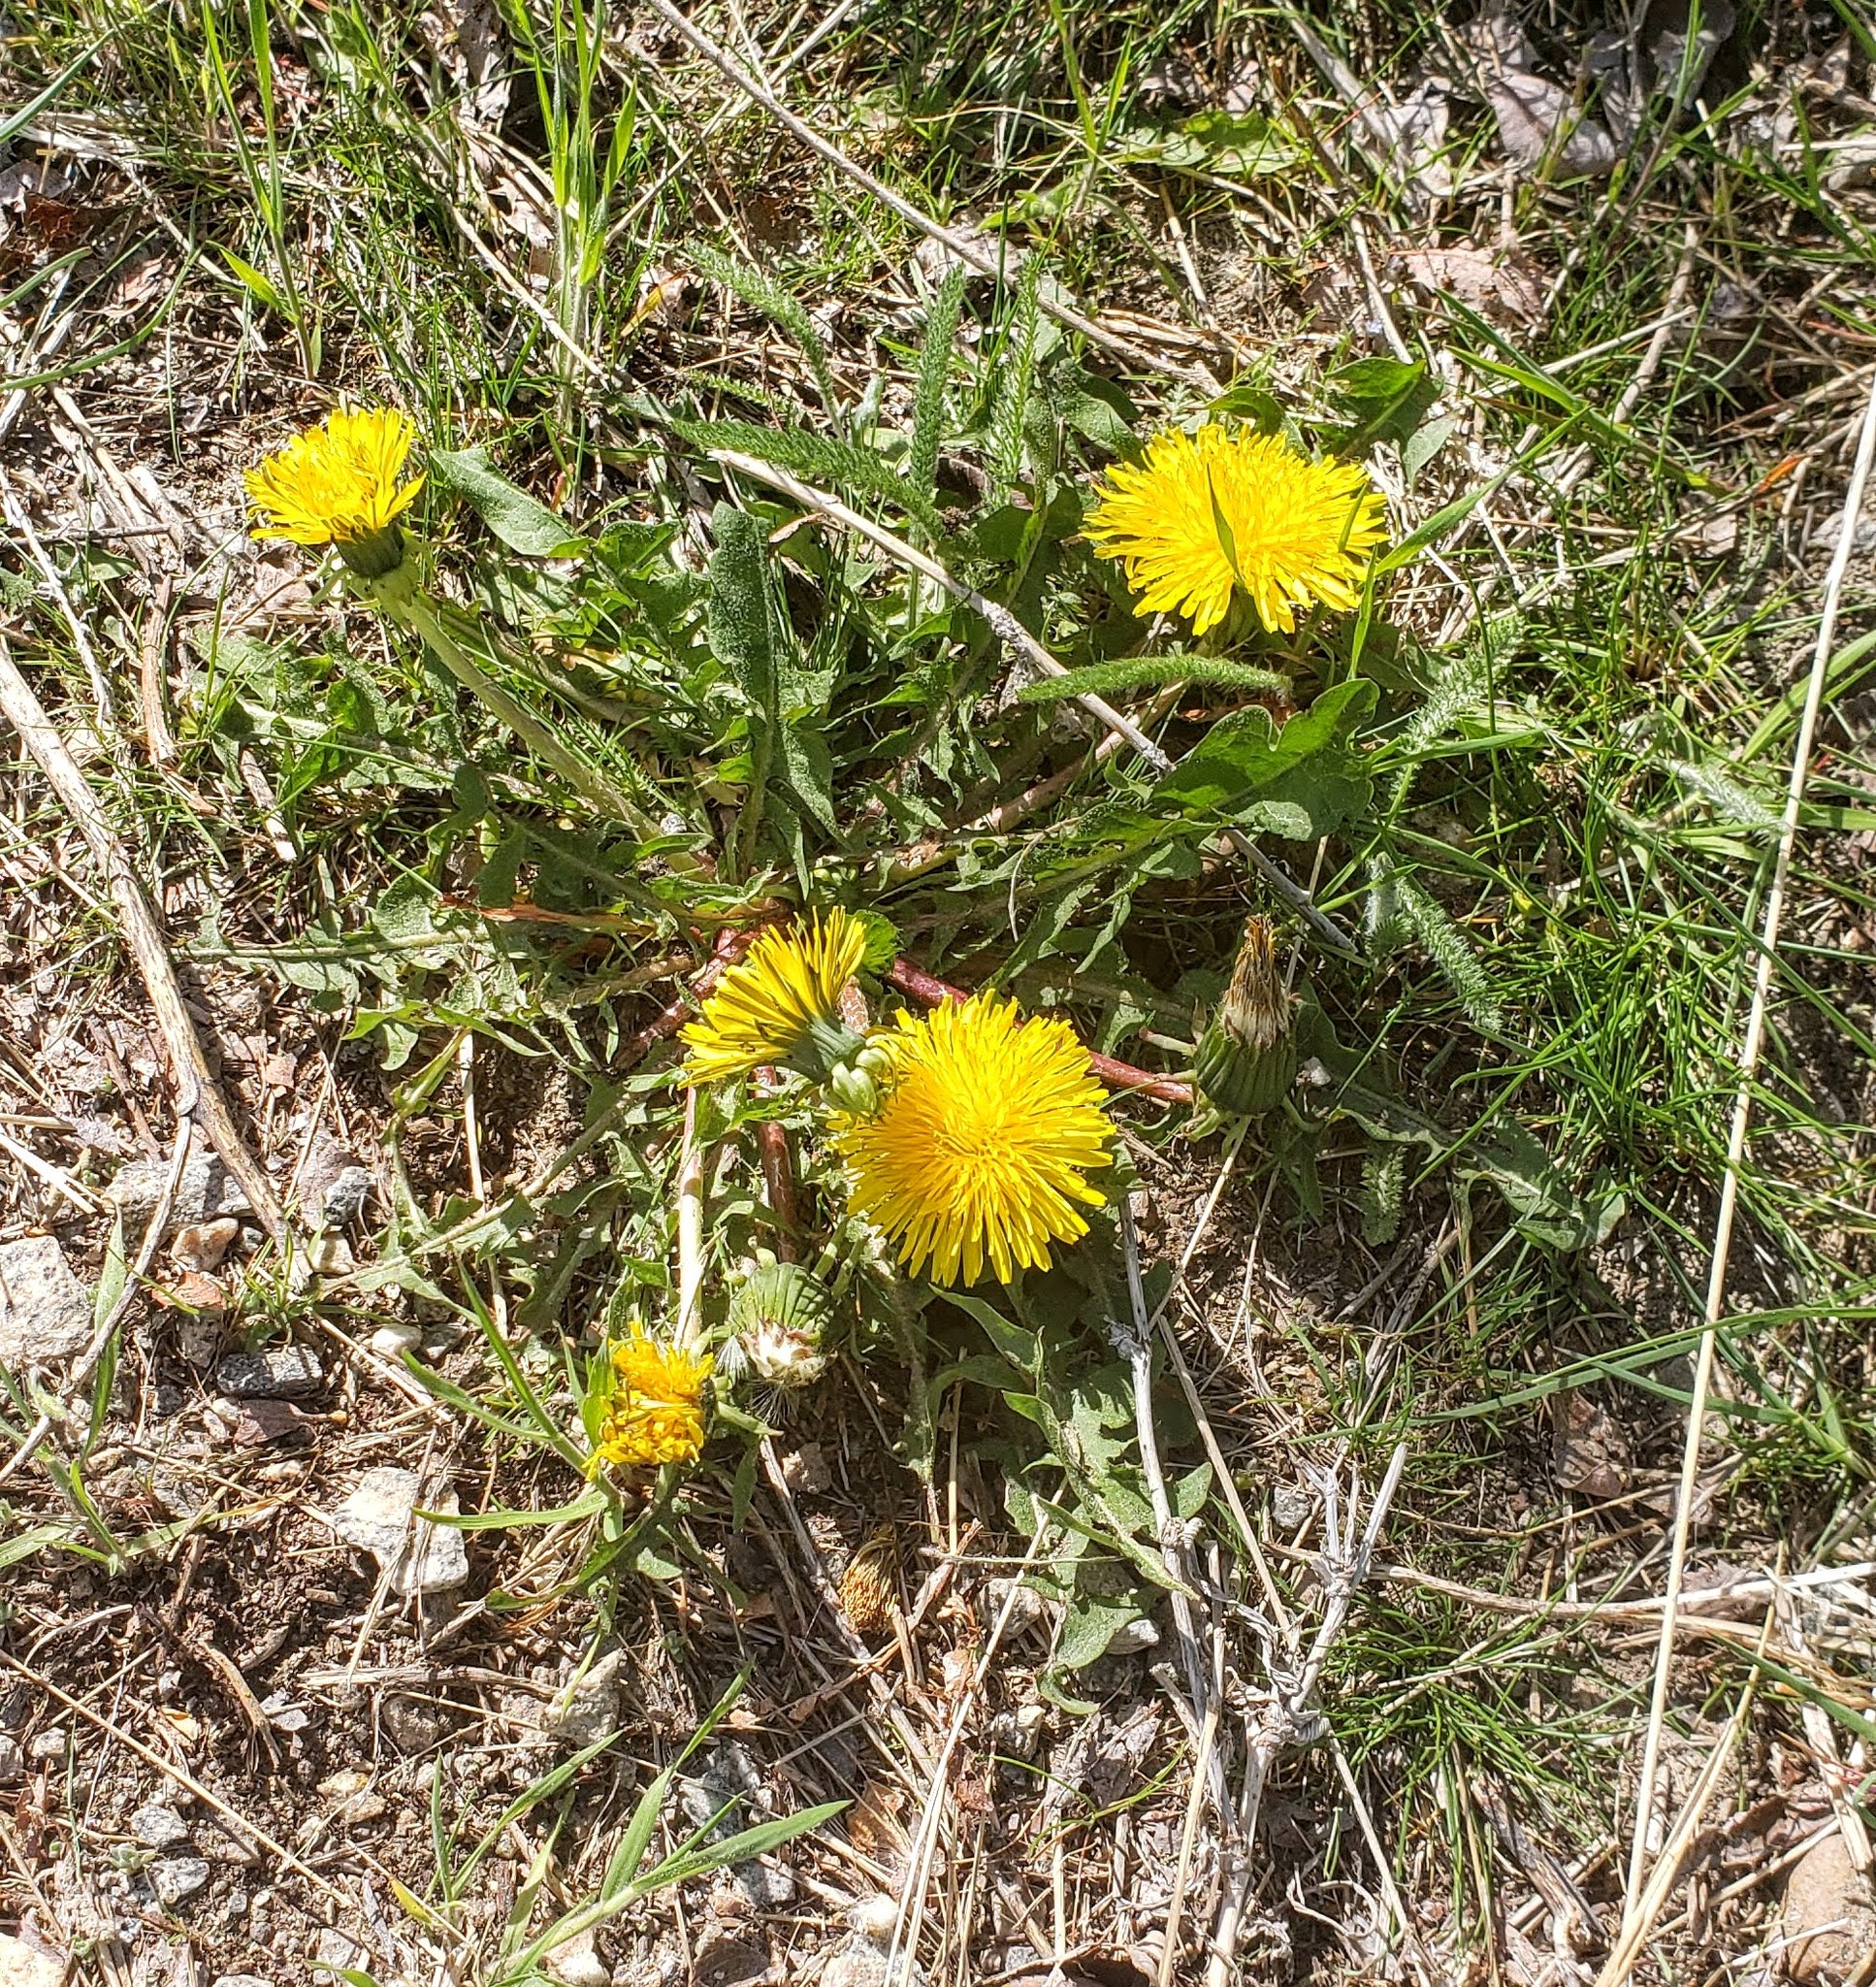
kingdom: Plantae
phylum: Tracheophyta
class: Magnoliopsida
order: Asterales
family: Asteraceae
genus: Taraxacum
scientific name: Taraxacum officinale
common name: Common dandelion
